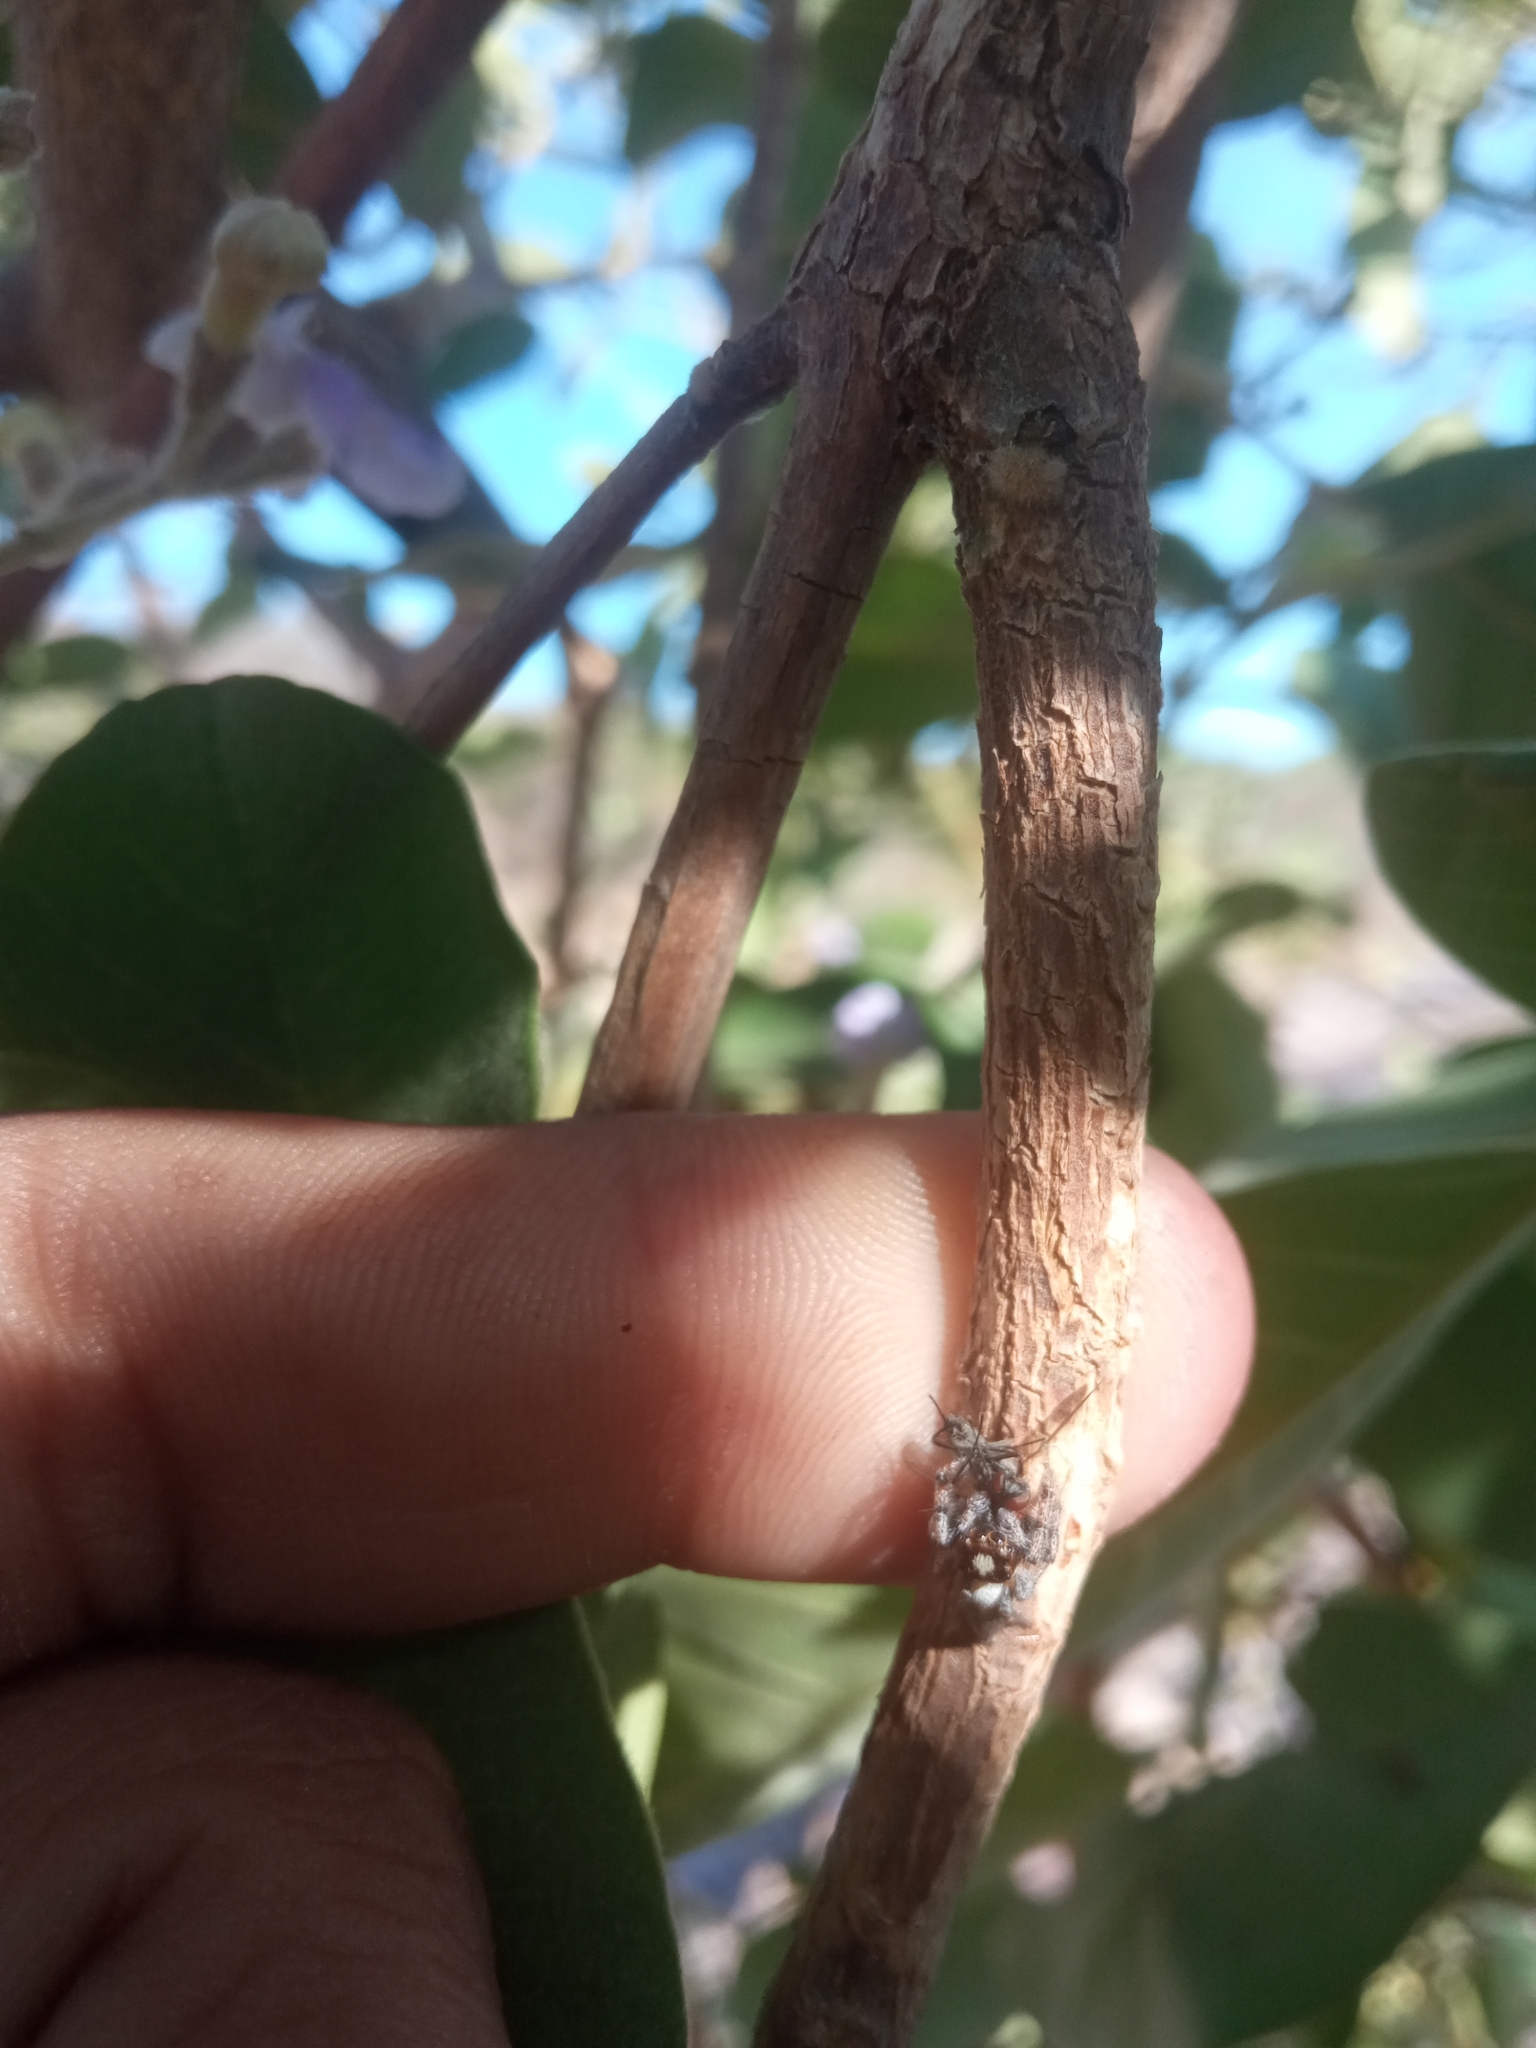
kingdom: Animalia
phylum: Arthropoda
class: Arachnida
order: Araneae
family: Salticidae
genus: Colonus
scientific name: Colonus hesperus
